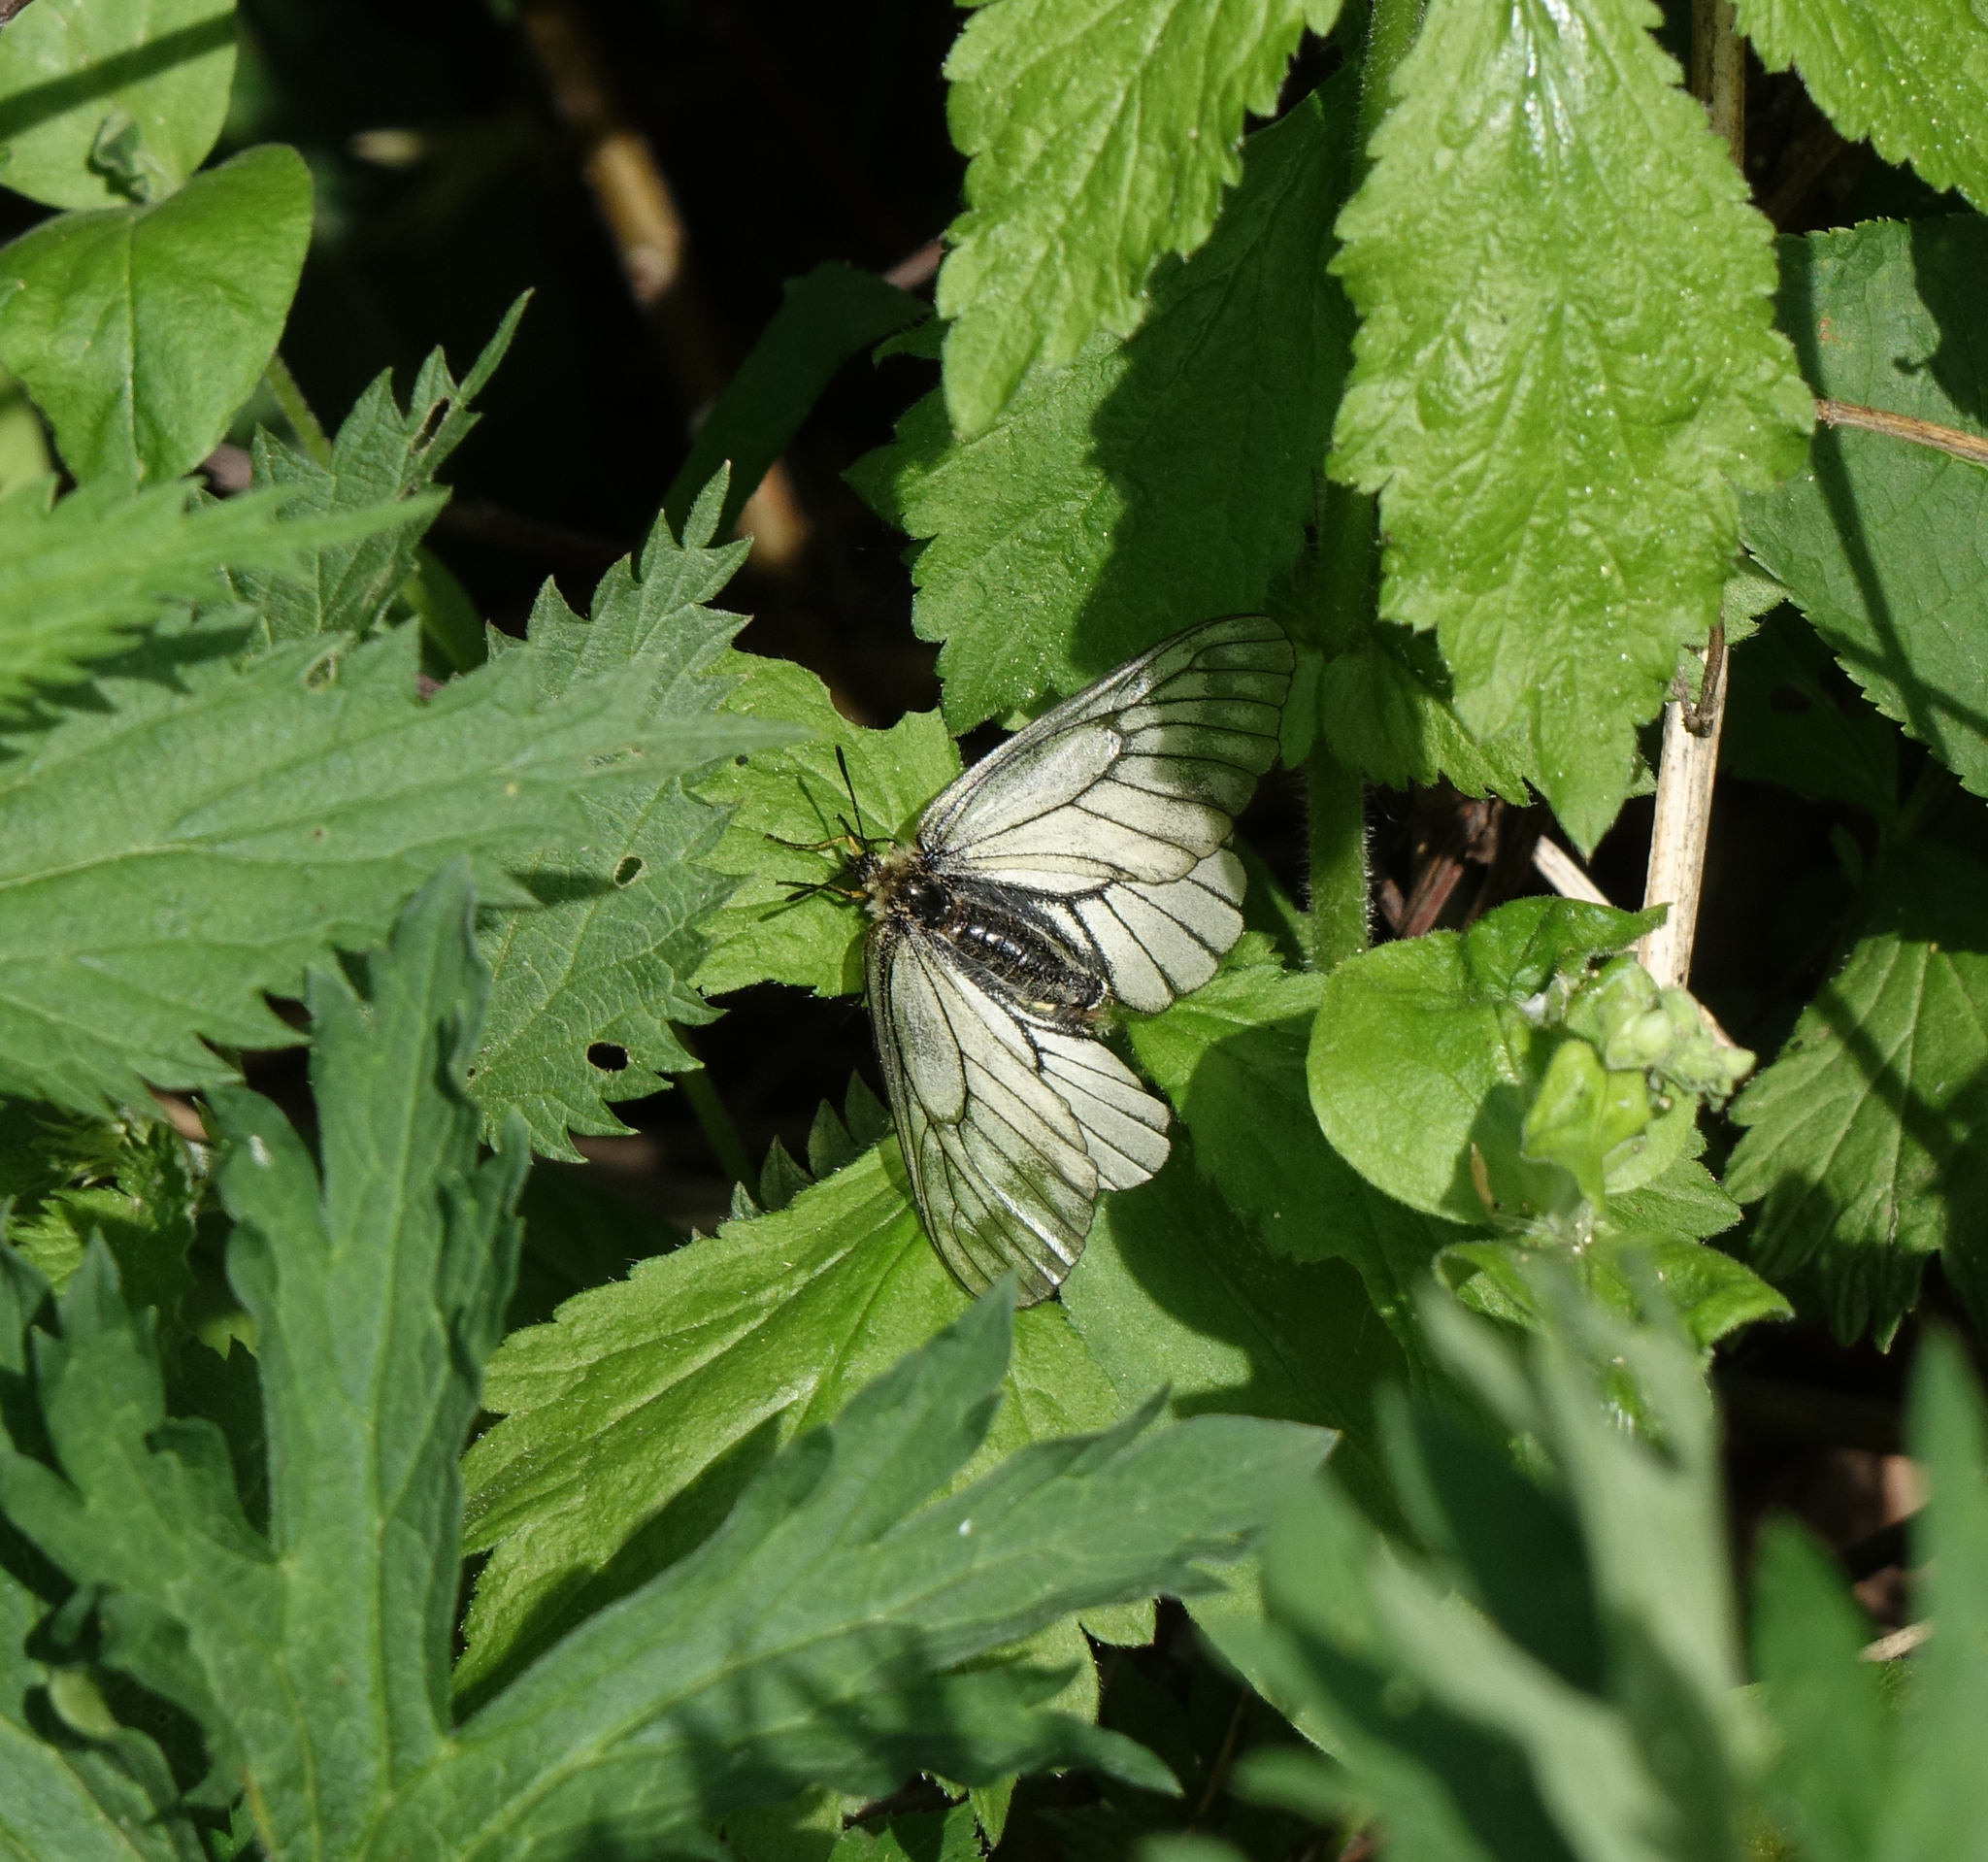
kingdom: Animalia
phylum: Arthropoda
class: Insecta
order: Lepidoptera
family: Papilionidae
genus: Parnassius
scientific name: Parnassius stubbendorfii
